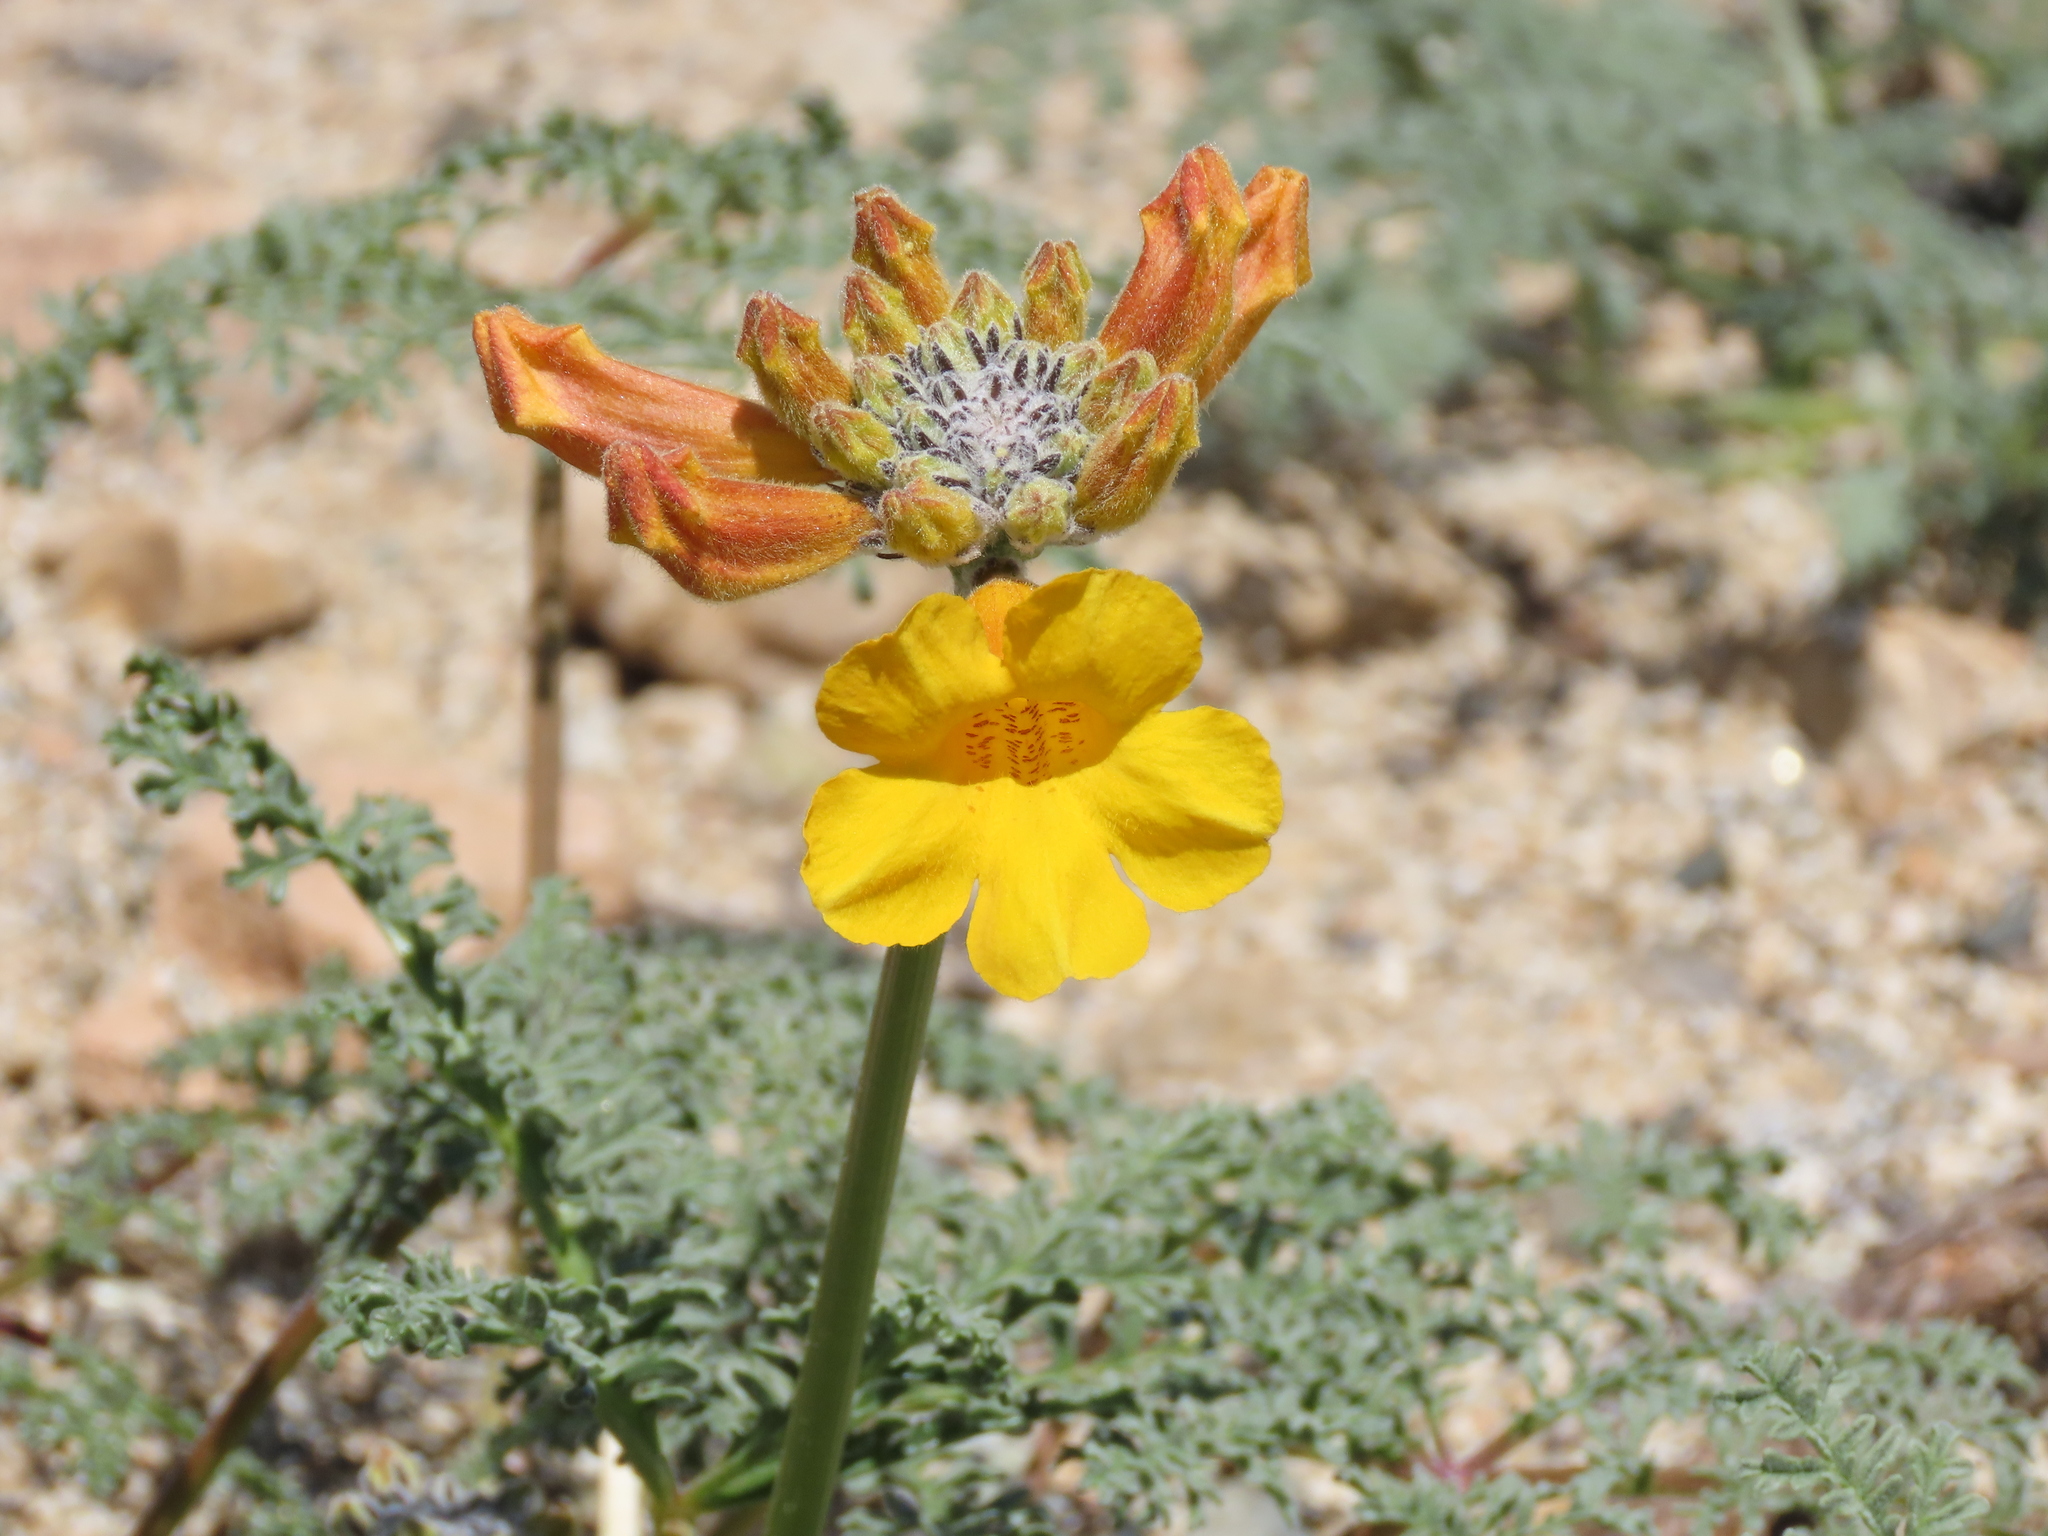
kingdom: Plantae
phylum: Tracheophyta
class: Magnoliopsida
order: Lamiales
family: Bignoniaceae
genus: Argylia
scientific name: Argylia radiata
